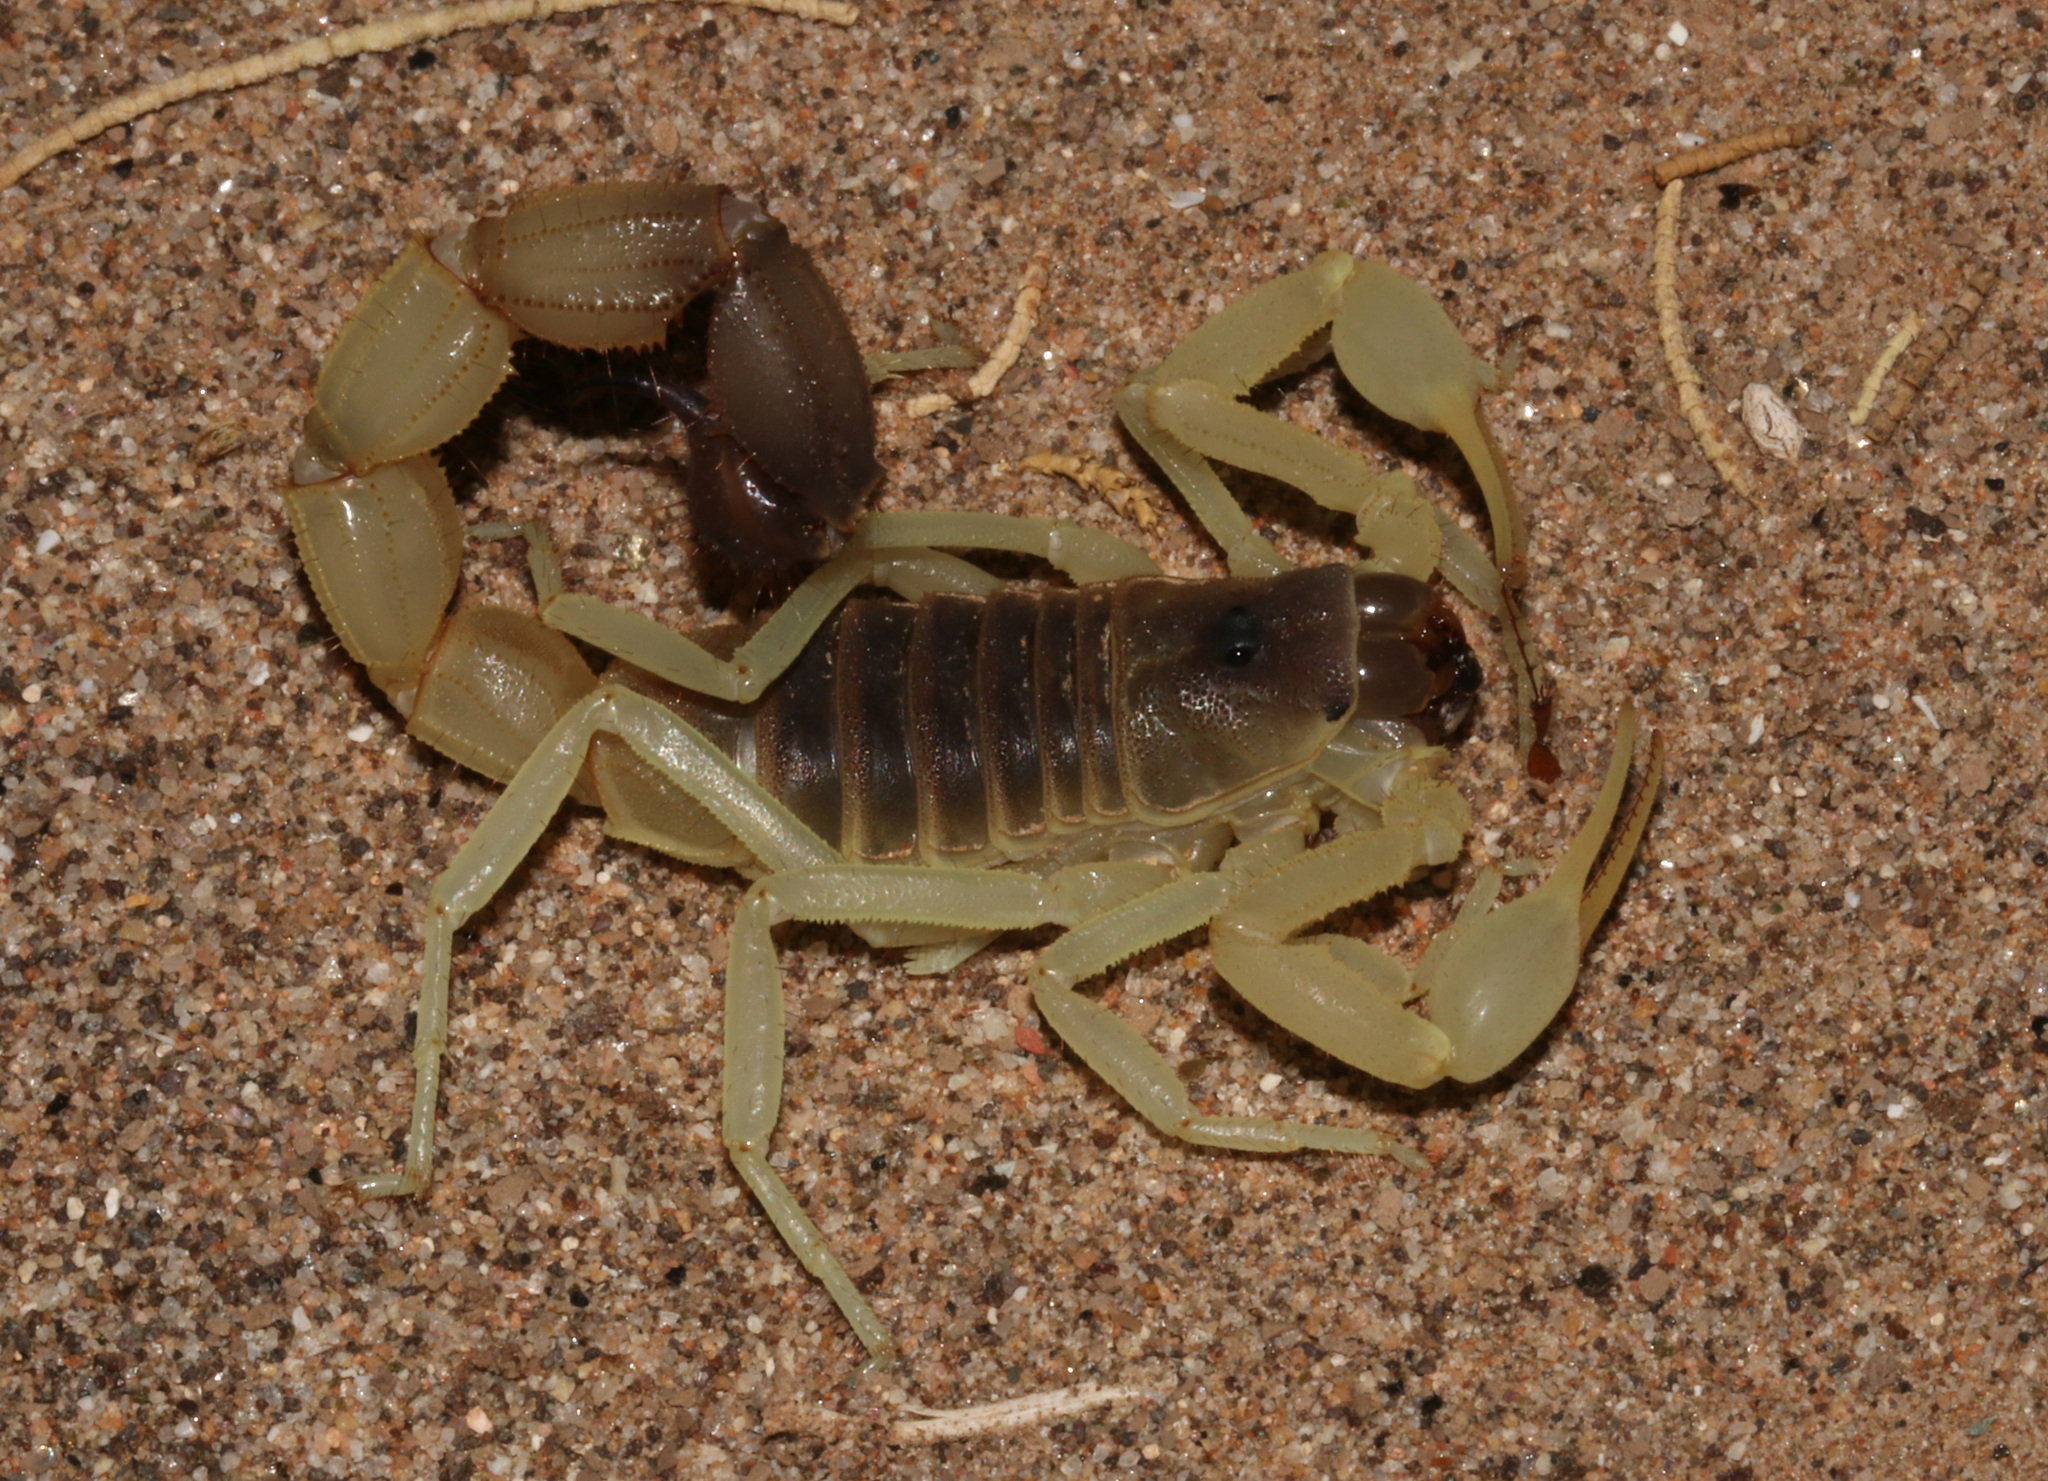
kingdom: Animalia
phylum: Arthropoda
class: Arachnida
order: Scorpiones
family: Buthidae
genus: Parabuthus
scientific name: Parabuthus schlechteri
